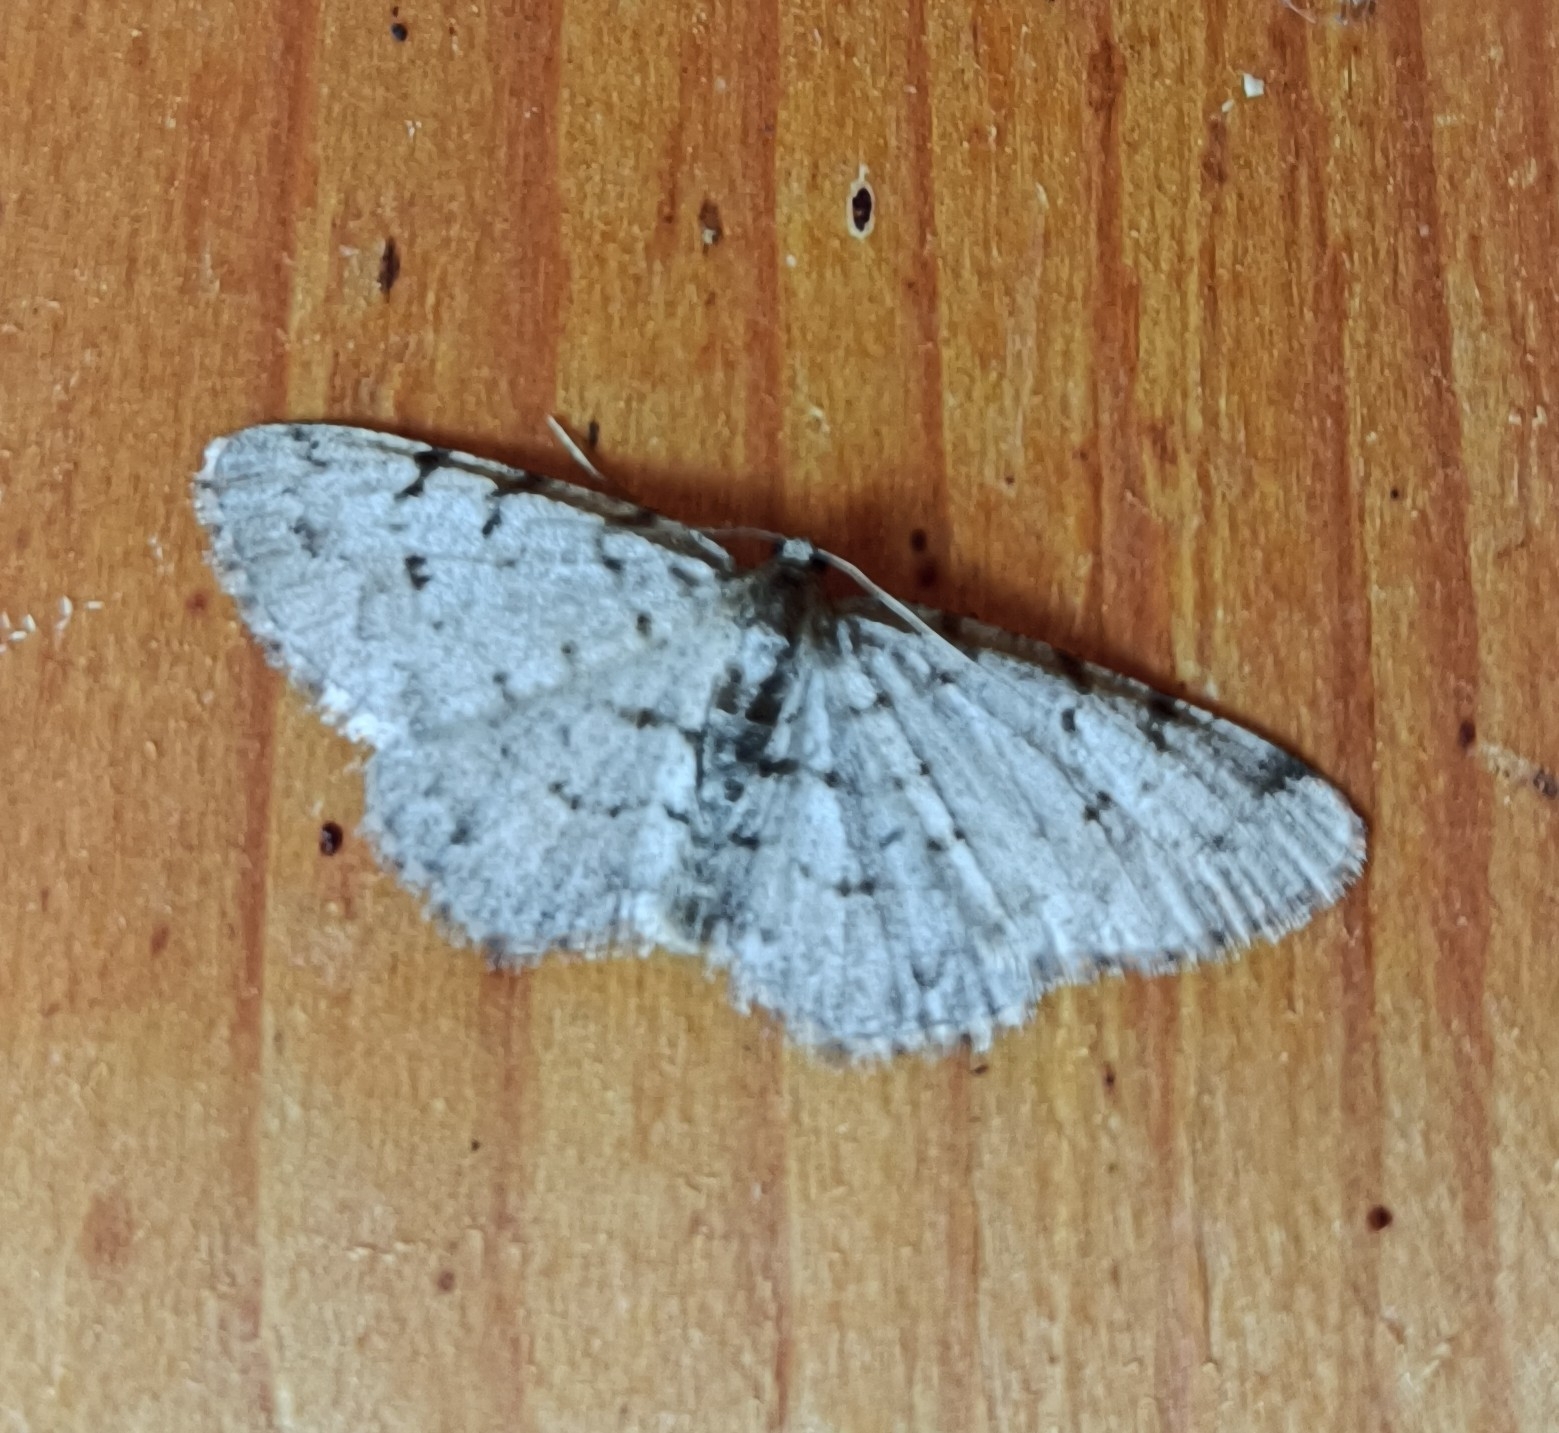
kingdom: Animalia
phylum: Arthropoda
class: Insecta
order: Lepidoptera
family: Geometridae
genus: Aethalura
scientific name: Aethalura punctulata
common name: Grey birch
